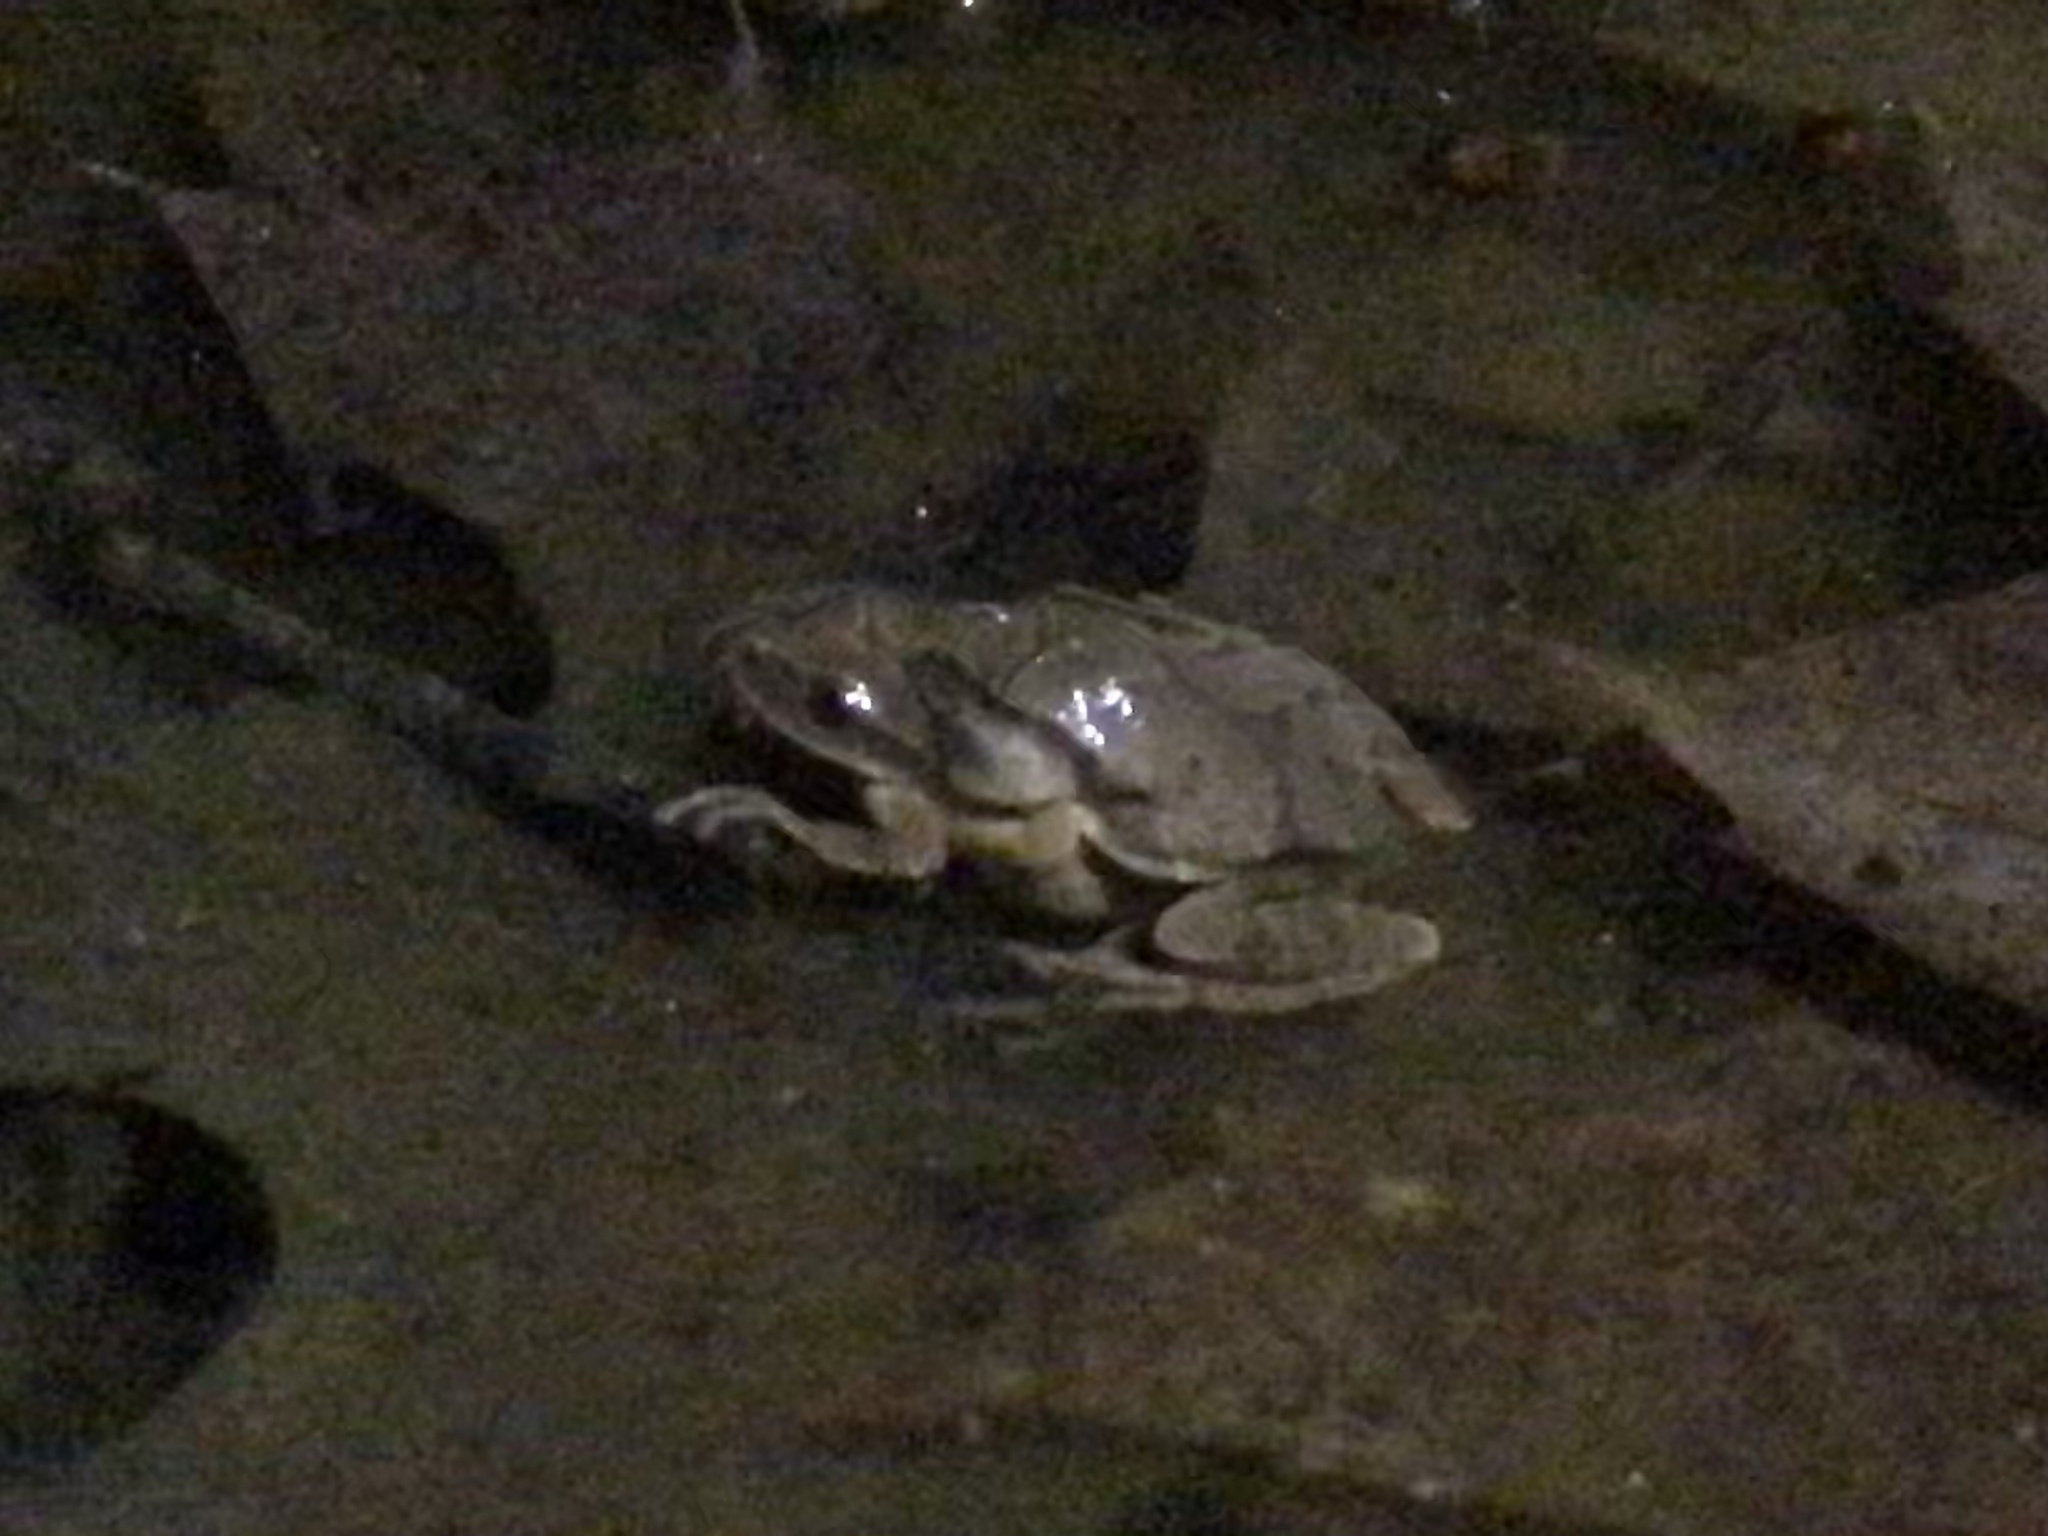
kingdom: Animalia
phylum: Chordata
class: Amphibia
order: Anura
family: Hylidae
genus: Pseudacris
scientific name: Pseudacris crucifer
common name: Spring peeper
